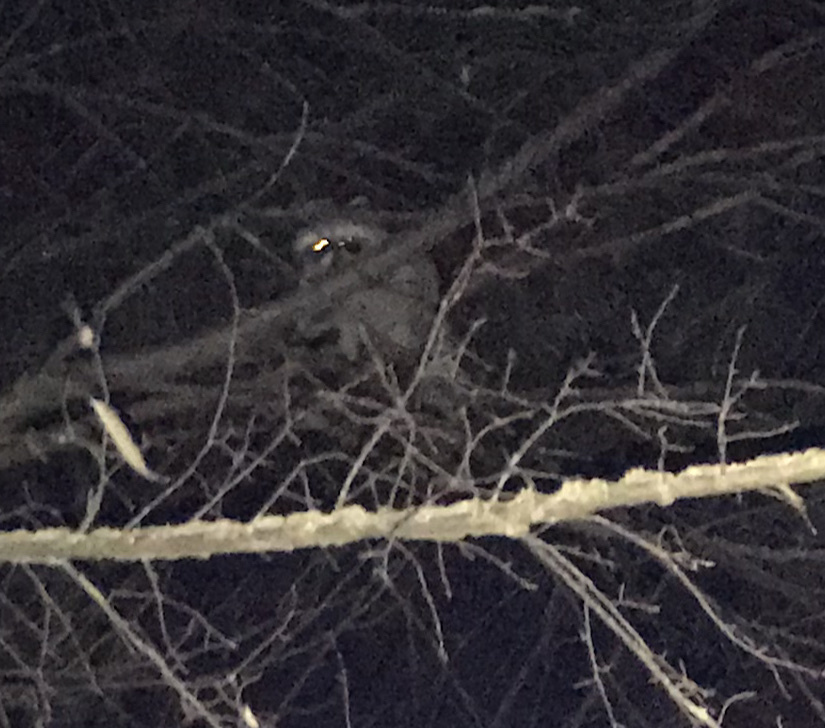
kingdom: Animalia
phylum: Chordata
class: Mammalia
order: Carnivora
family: Procyonidae
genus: Procyon
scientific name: Procyon lotor
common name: Raccoon
